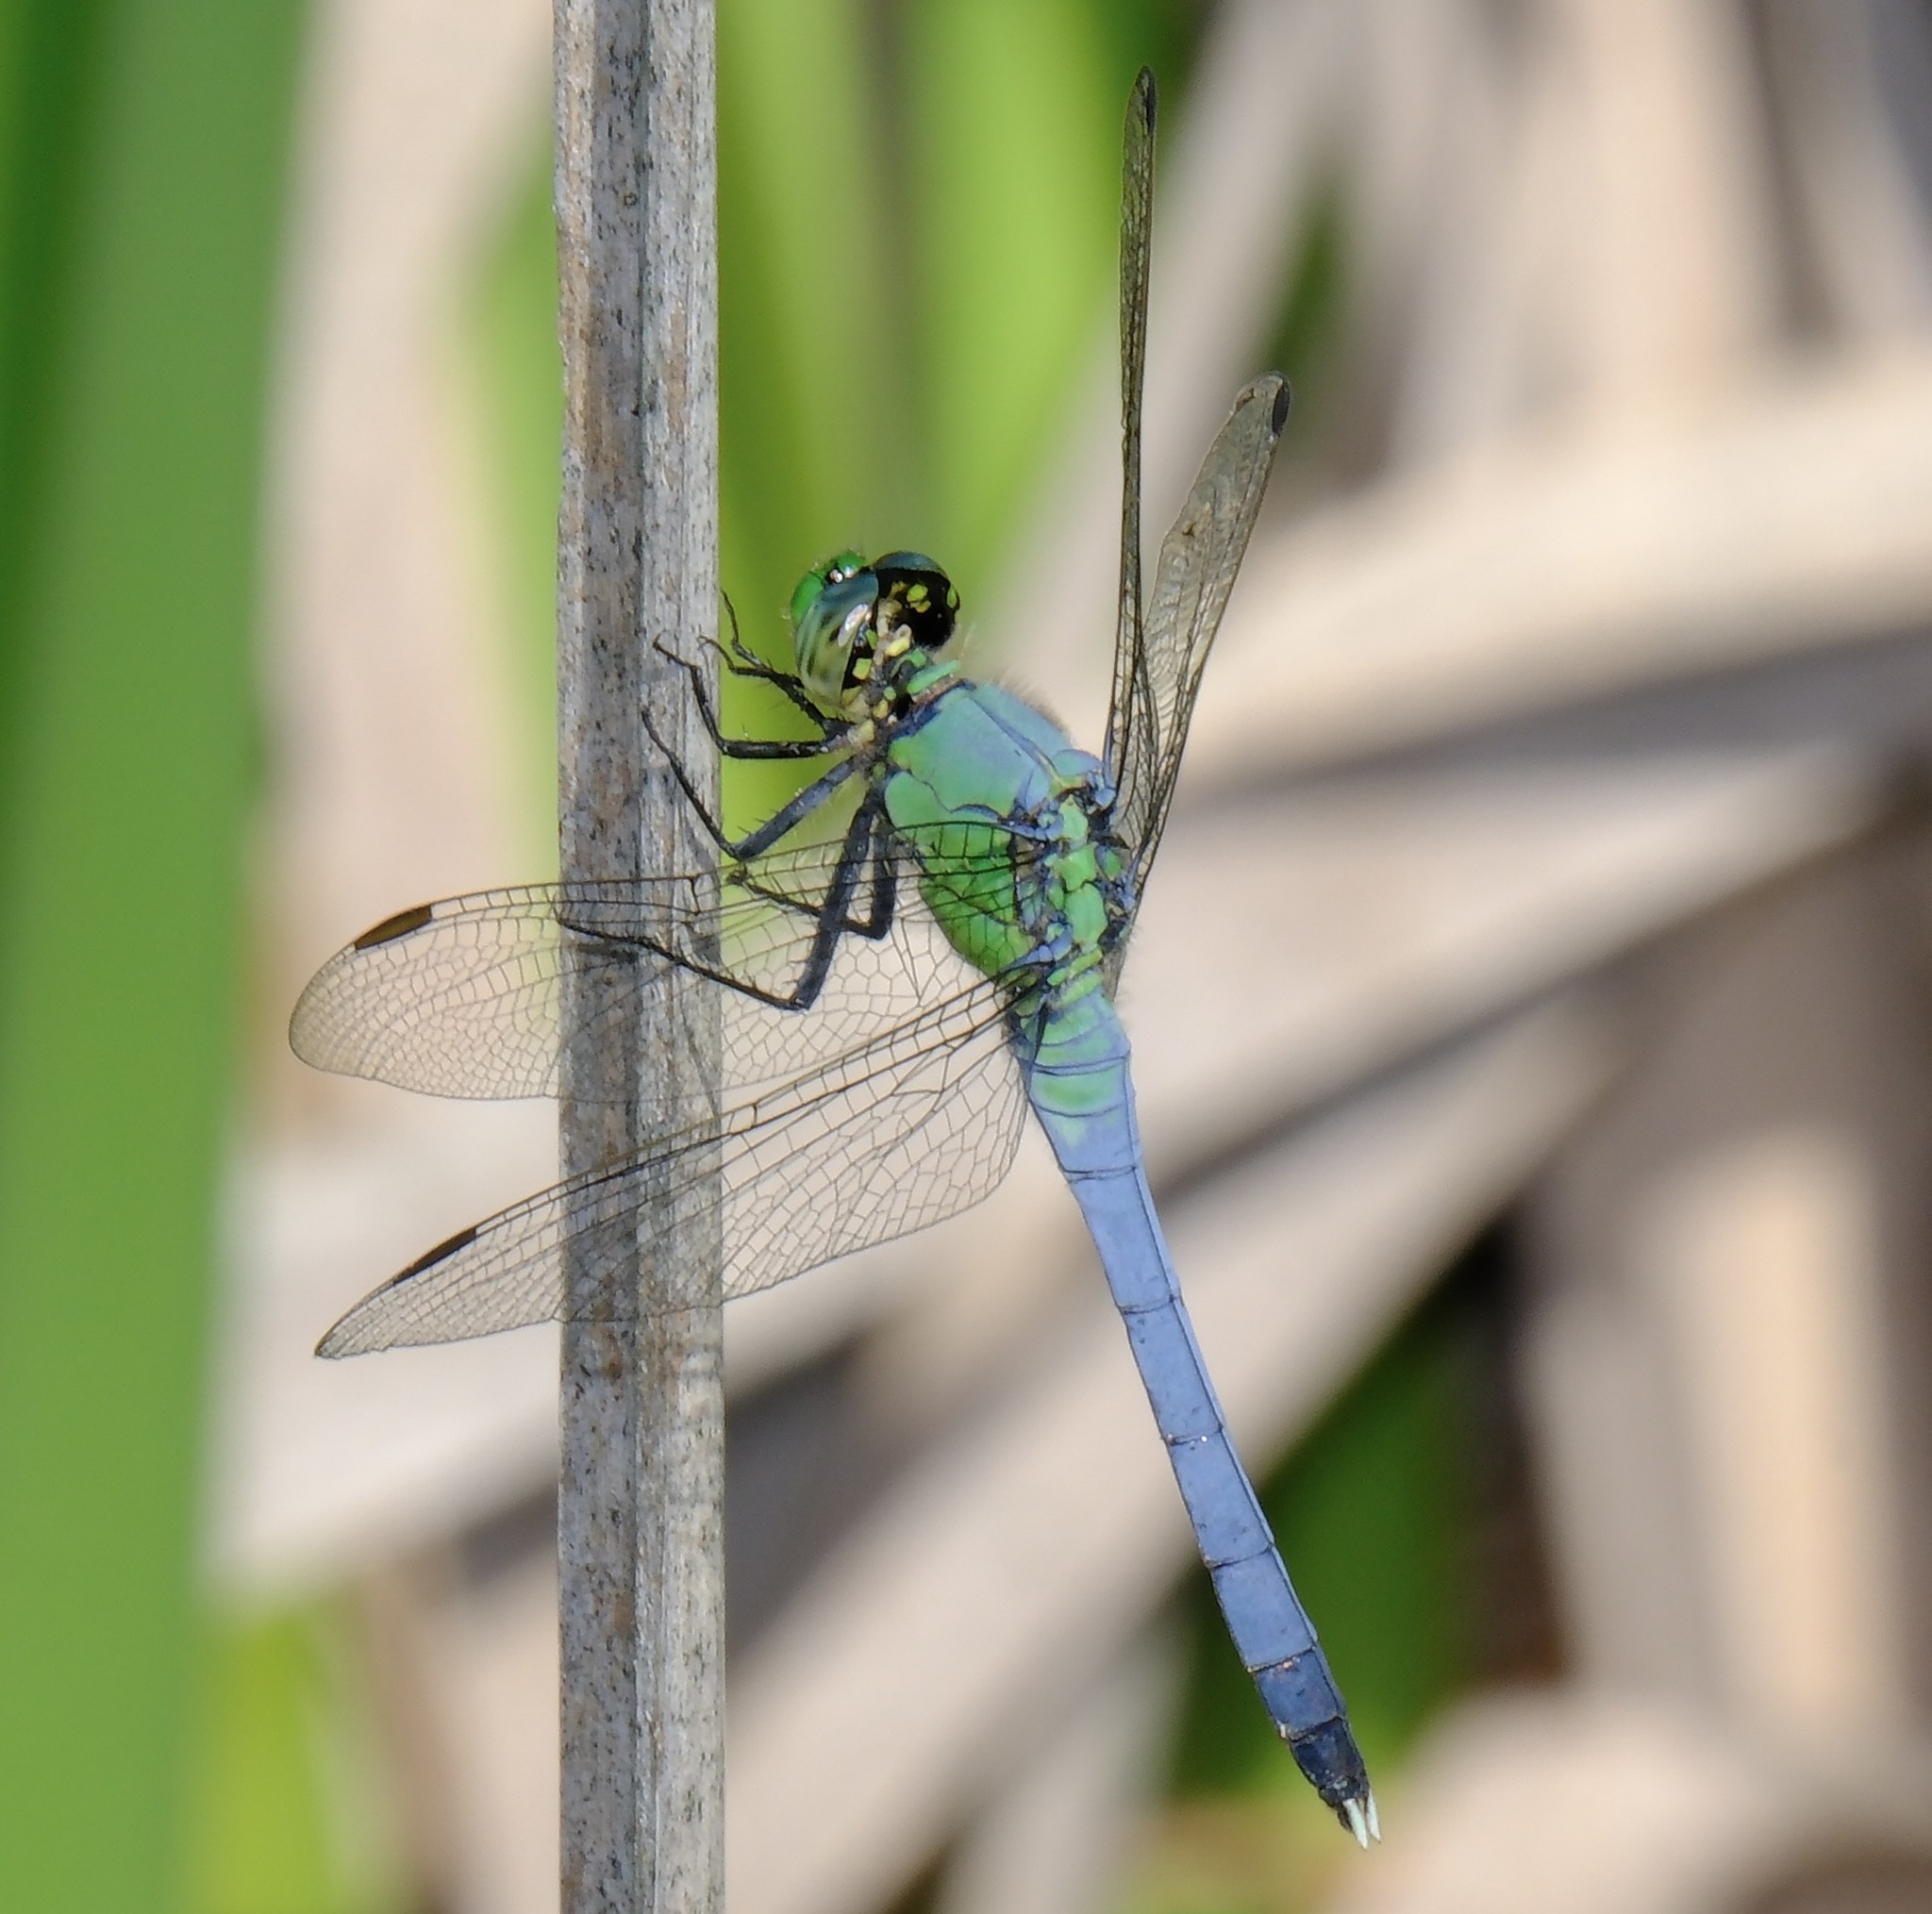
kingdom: Animalia
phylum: Arthropoda
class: Insecta
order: Odonata
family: Libellulidae
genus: Erythemis
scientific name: Erythemis simplicicollis
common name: Eastern pondhawk
